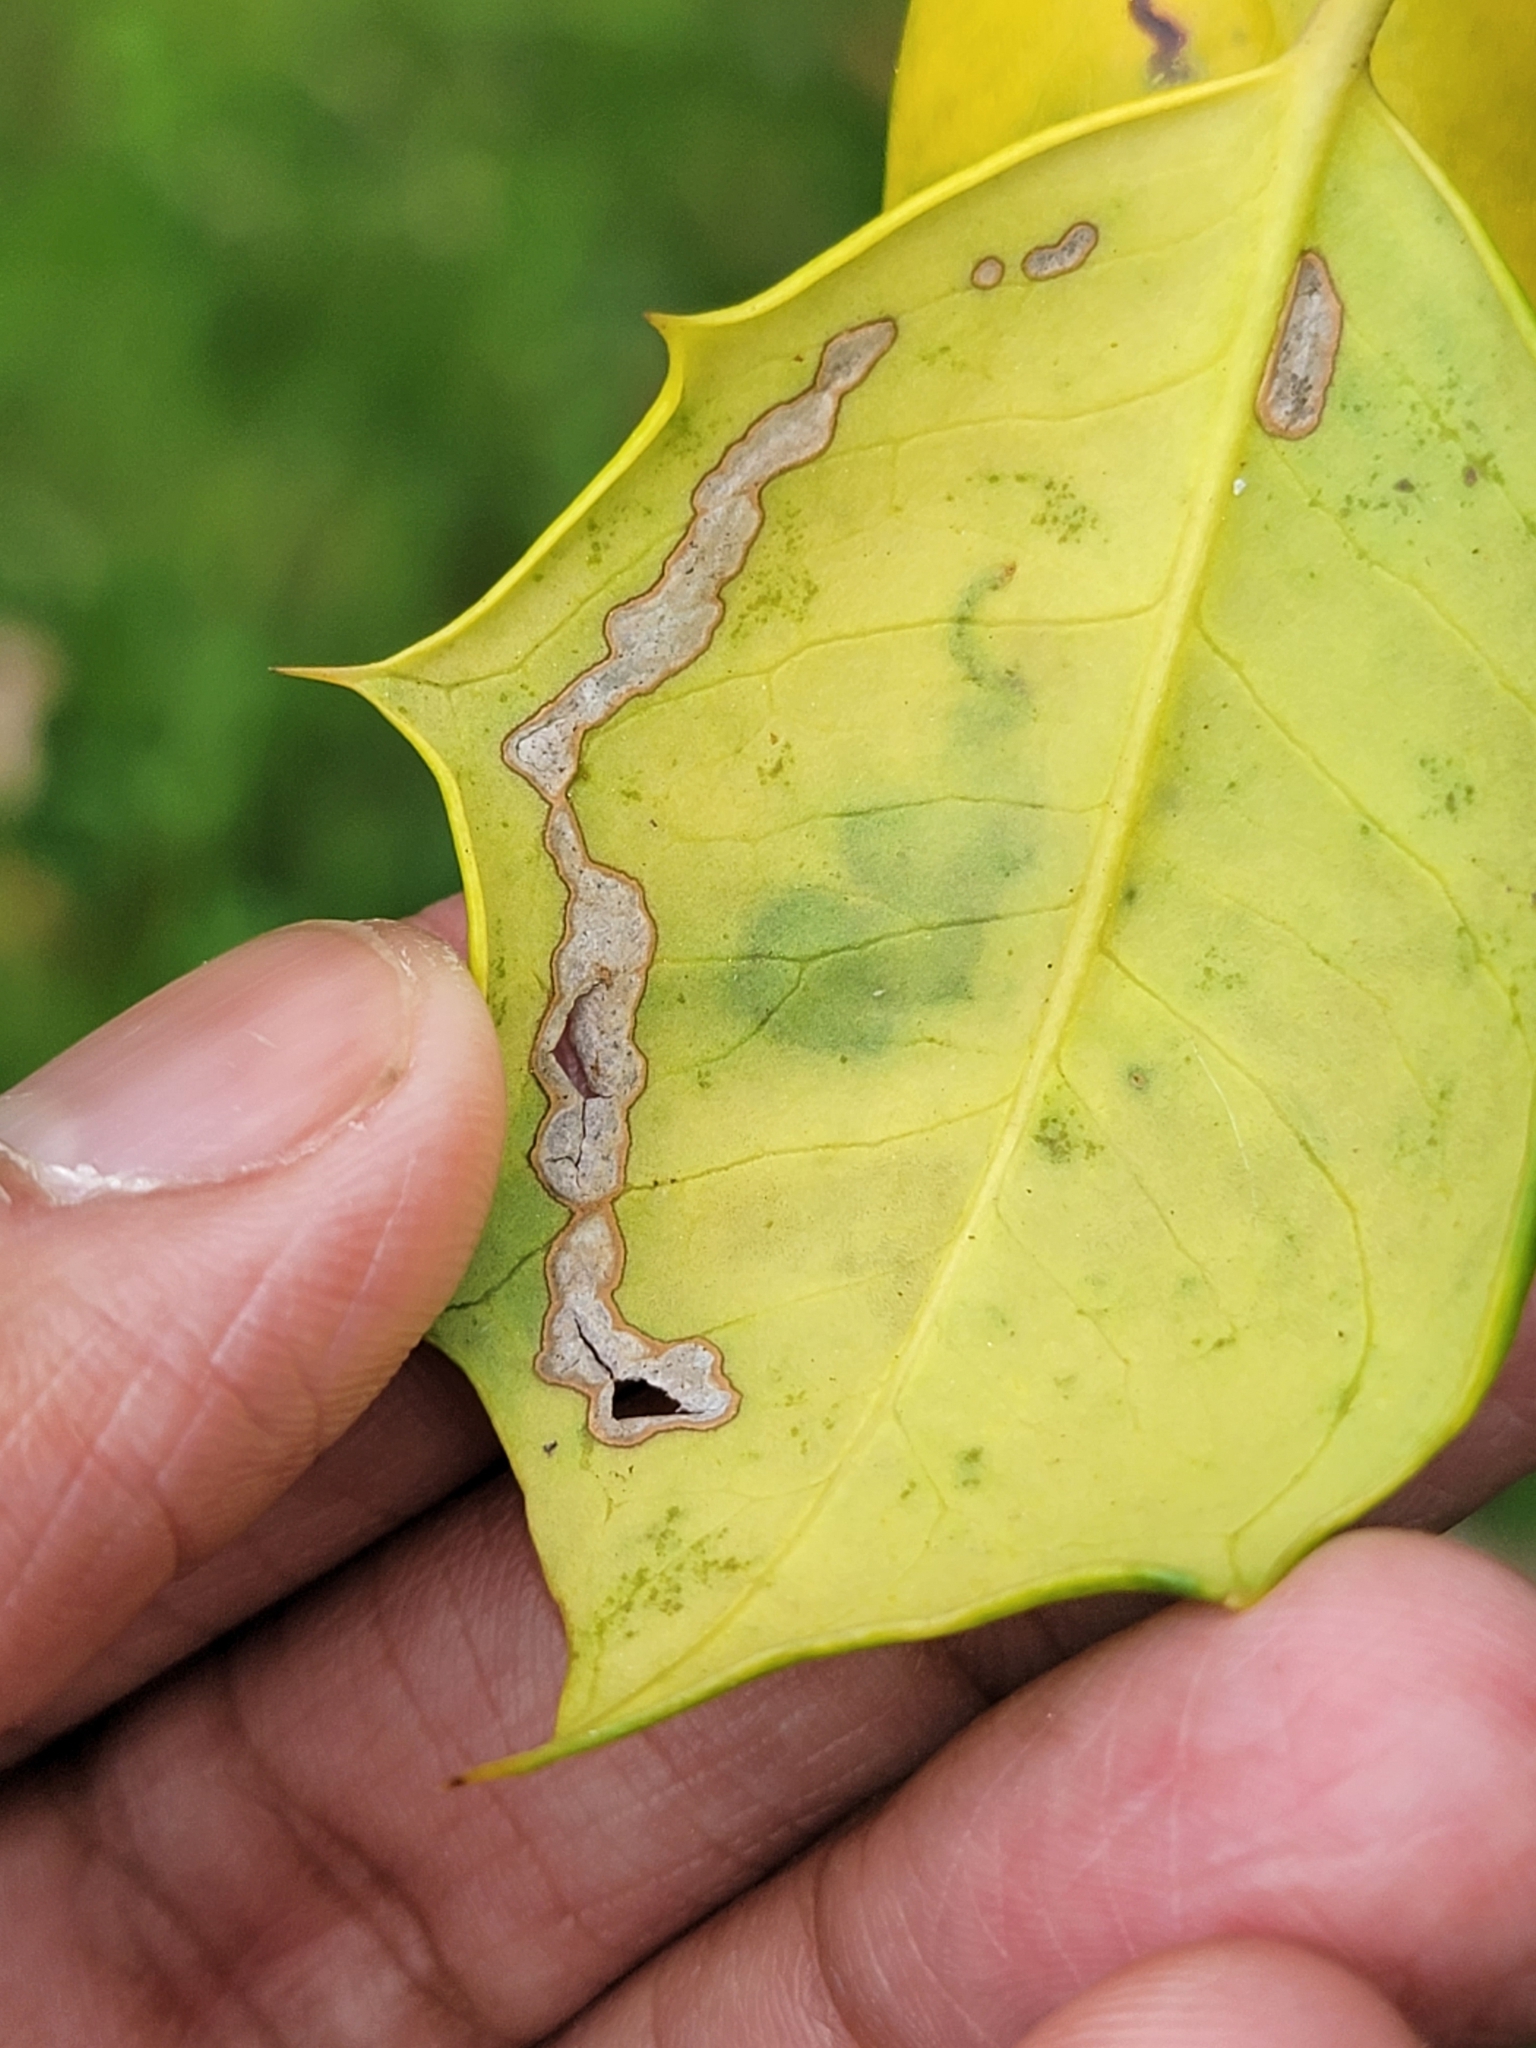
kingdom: Animalia
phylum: Arthropoda
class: Insecta
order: Diptera
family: Agromyzidae
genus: Phytomyza
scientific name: Phytomyza ilicicola
